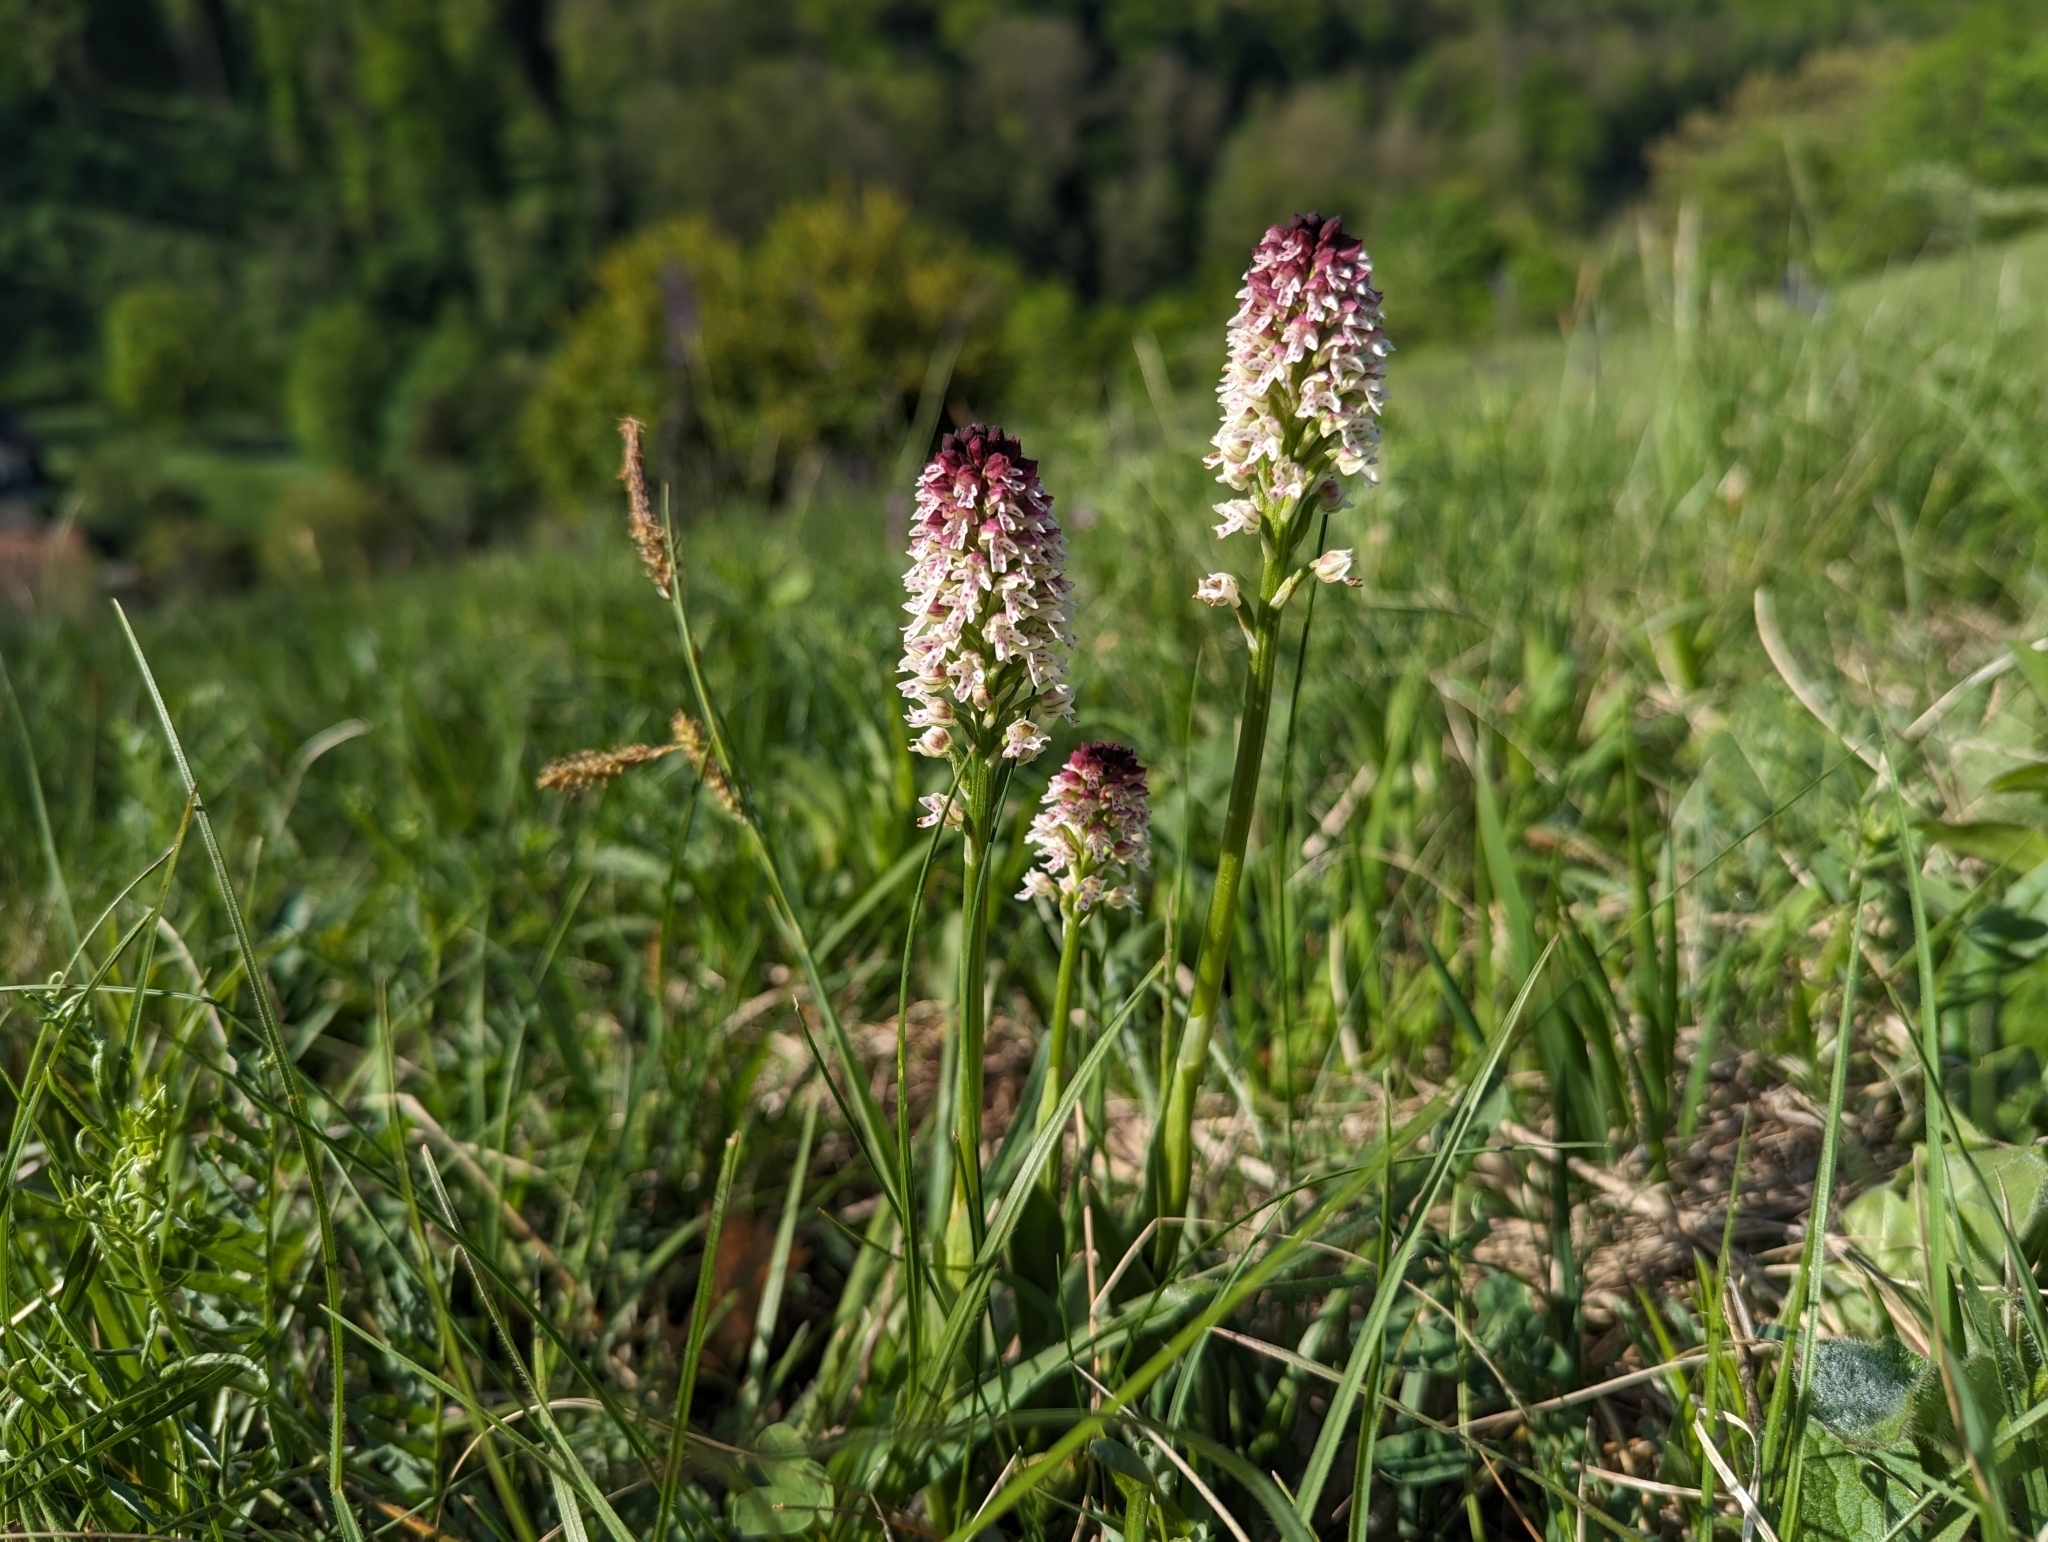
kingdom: Plantae
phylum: Tracheophyta
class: Liliopsida
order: Asparagales
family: Orchidaceae
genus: Neotinea
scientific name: Neotinea ustulata
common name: Burnt orchid
